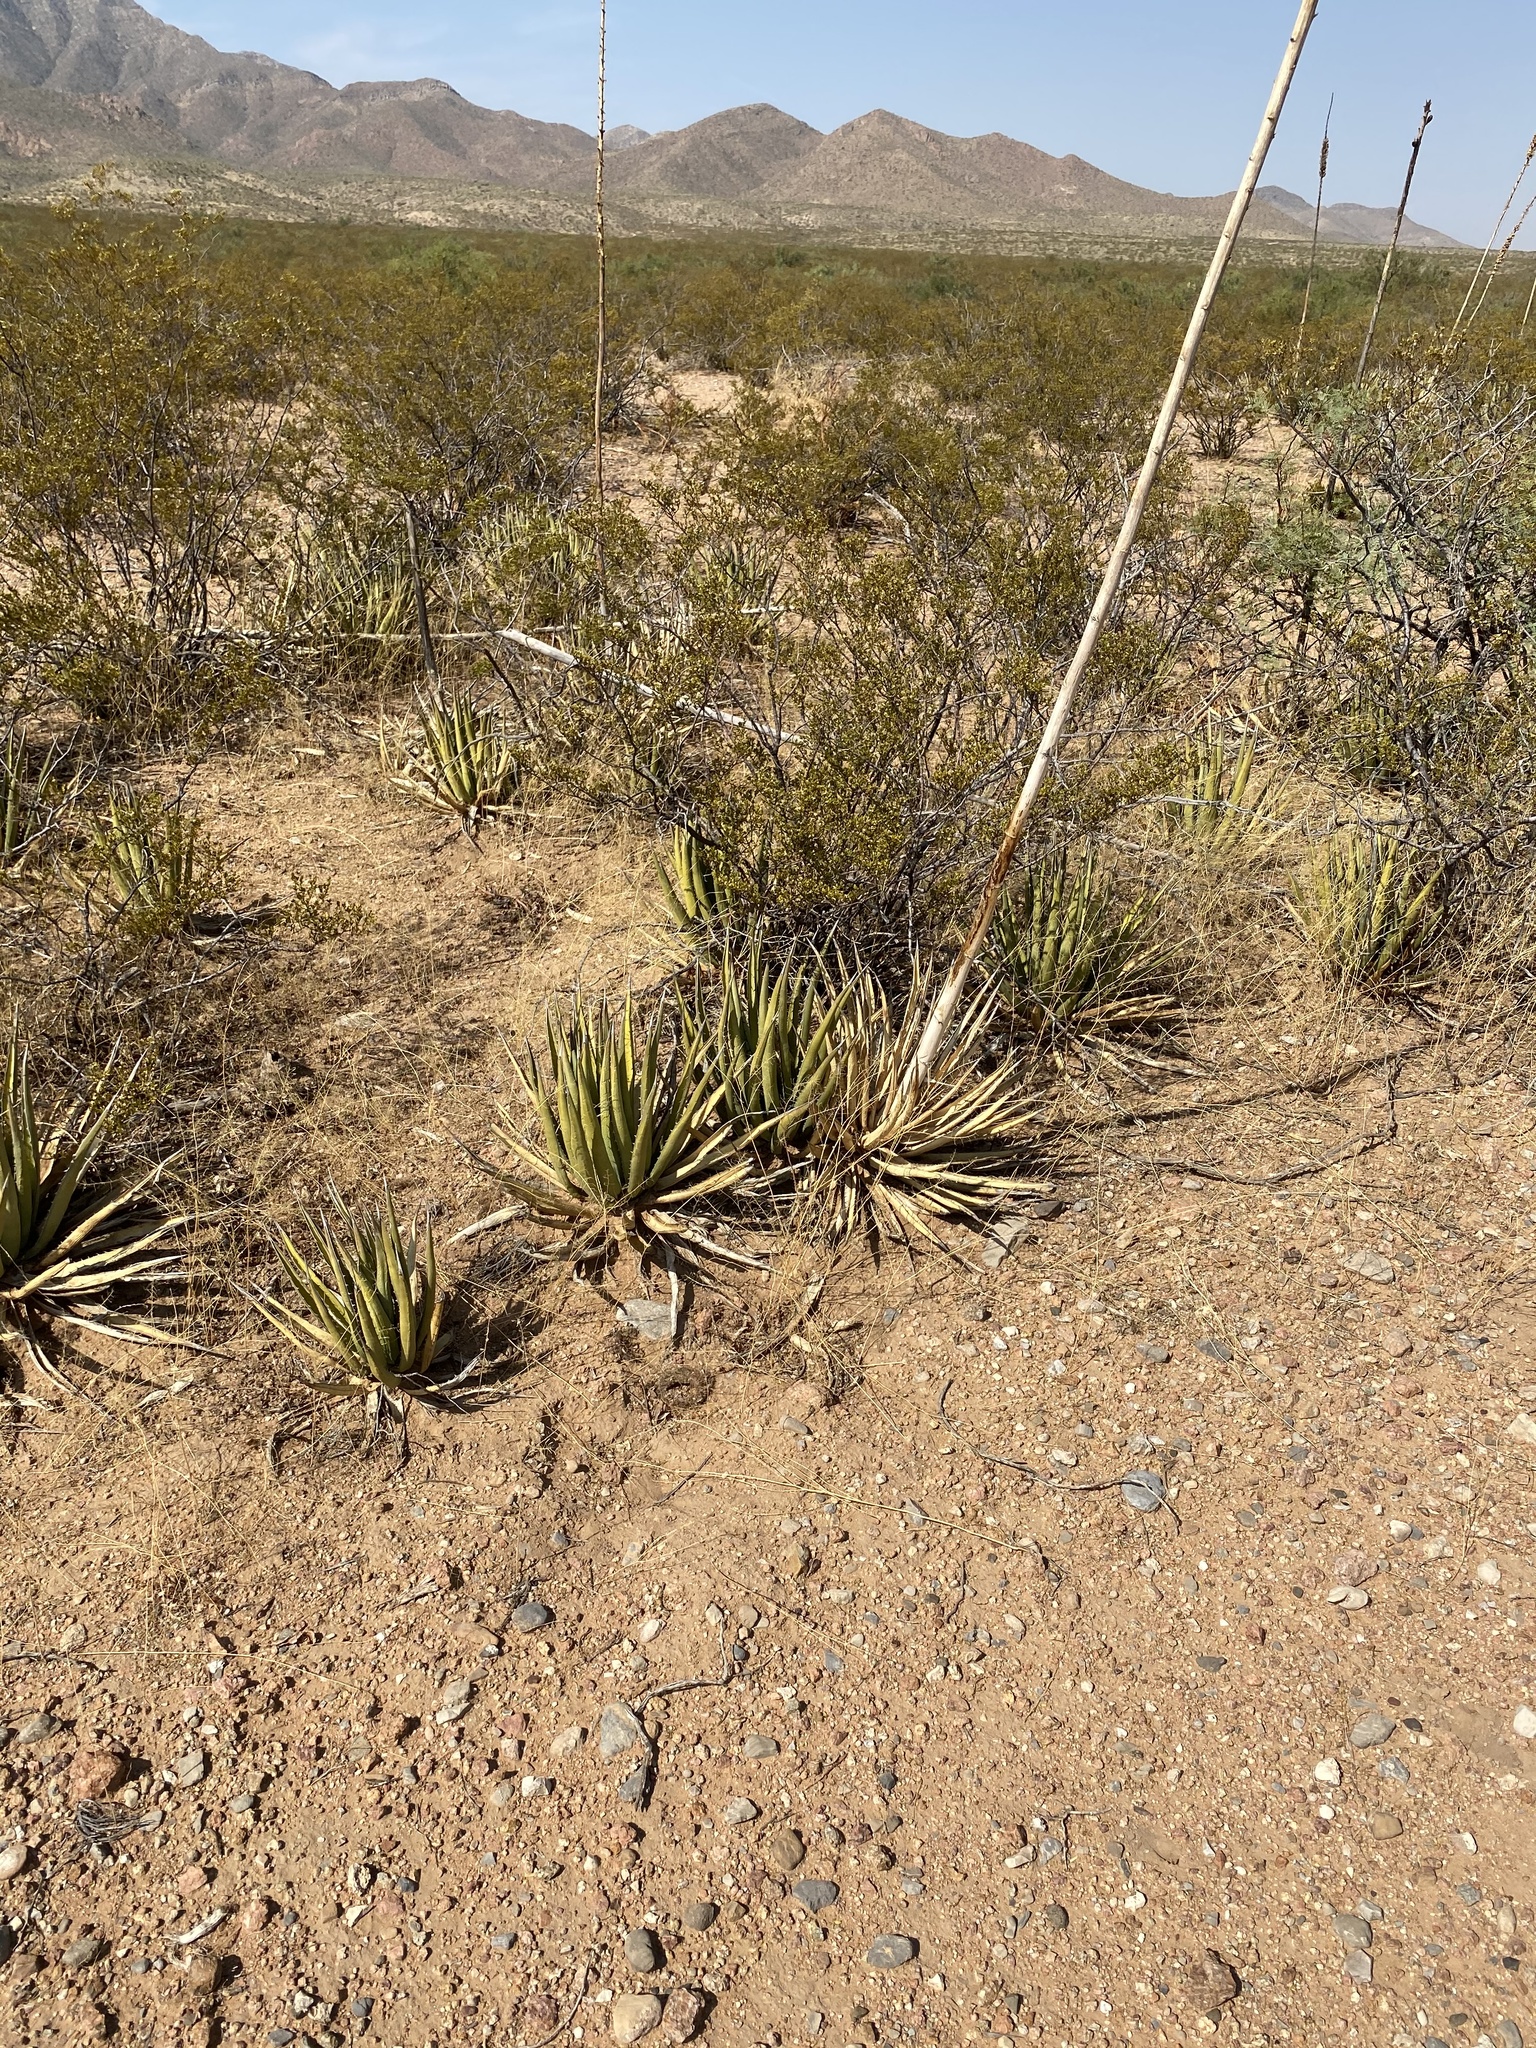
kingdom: Plantae
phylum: Tracheophyta
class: Liliopsida
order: Asparagales
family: Asparagaceae
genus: Agave
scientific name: Agave lechuguilla
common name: Lecheguilla agave
